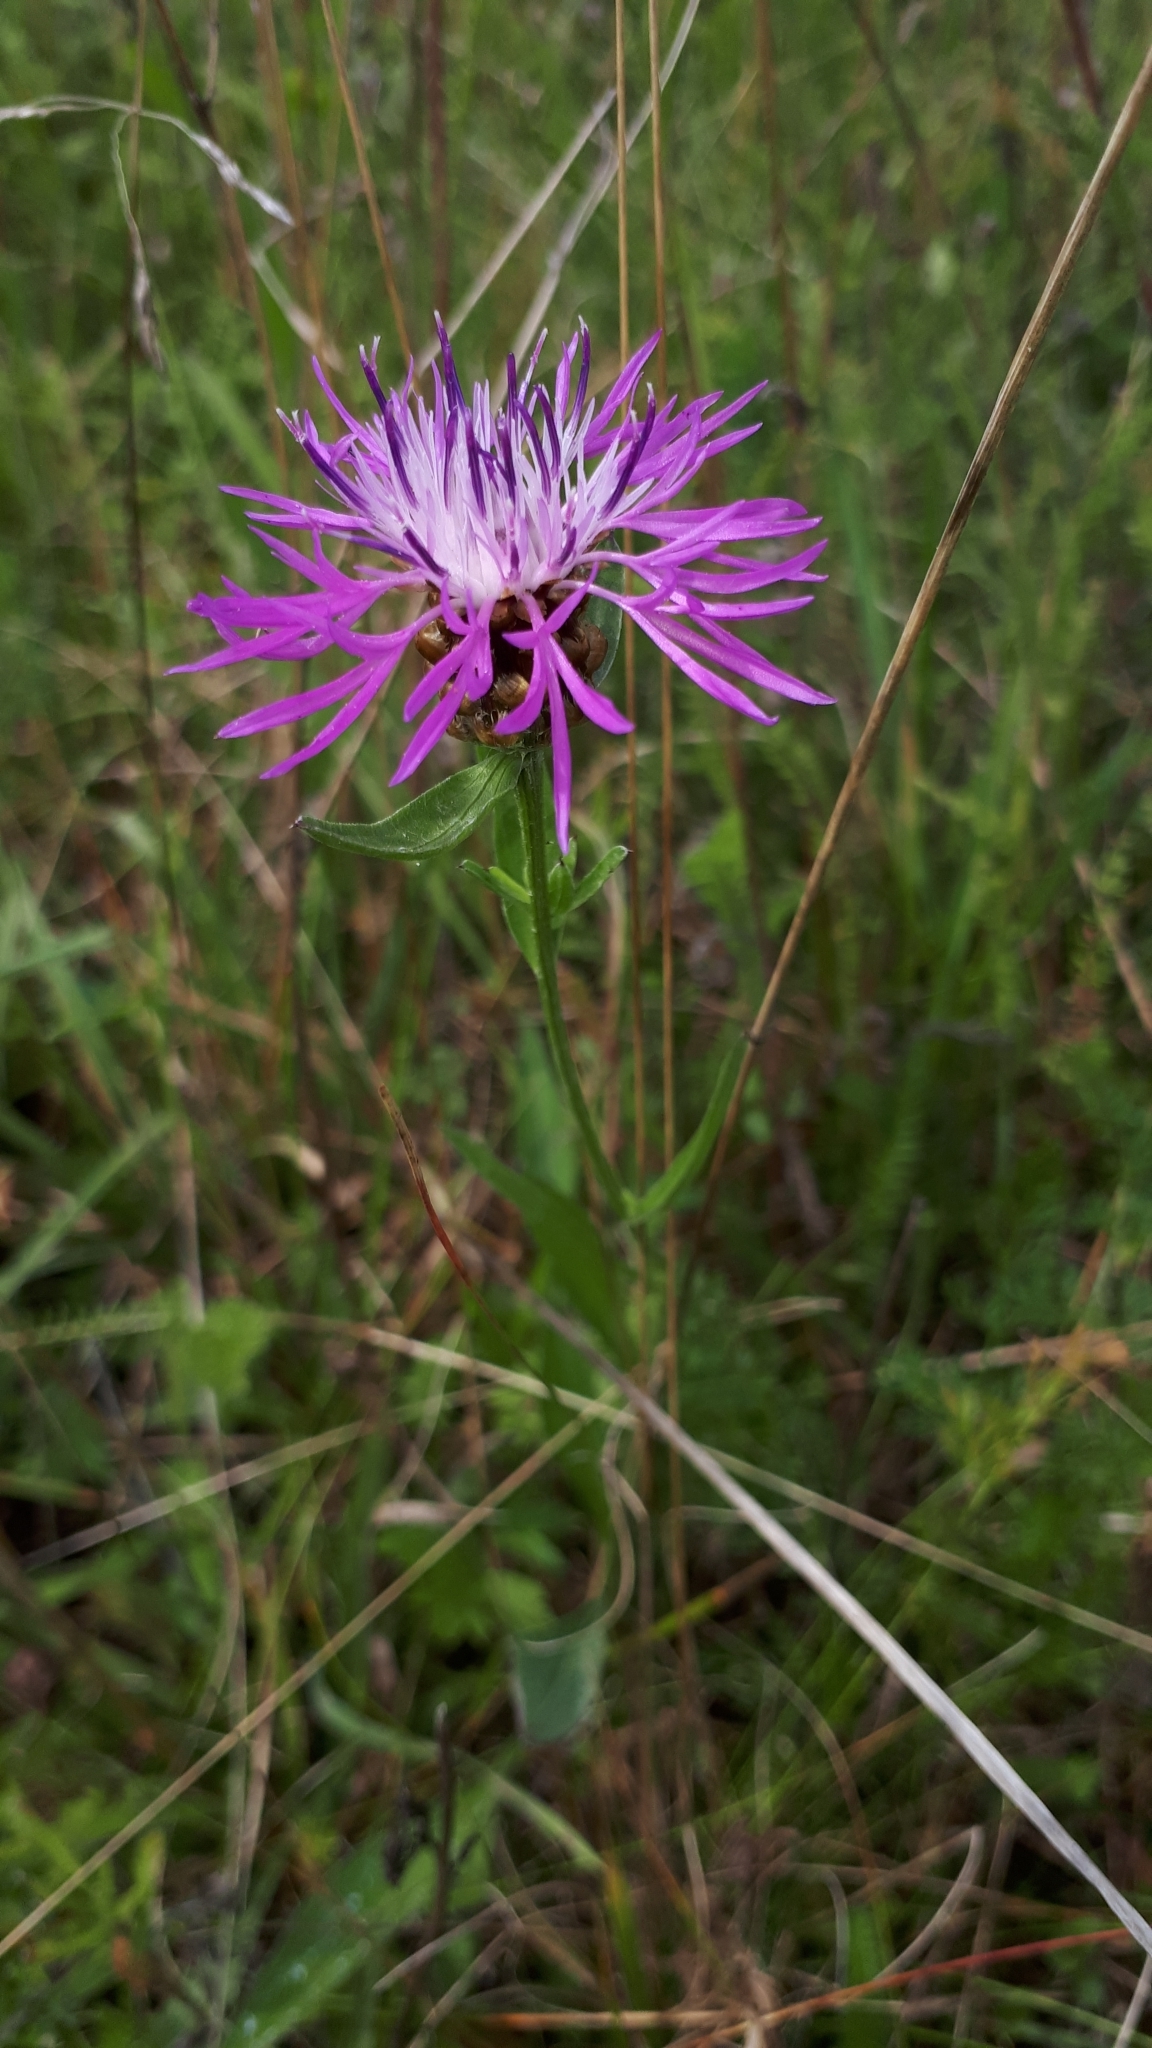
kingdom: Plantae
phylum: Tracheophyta
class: Magnoliopsida
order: Asterales
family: Asteraceae
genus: Centaurea
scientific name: Centaurea jacea
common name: Brown knapweed
